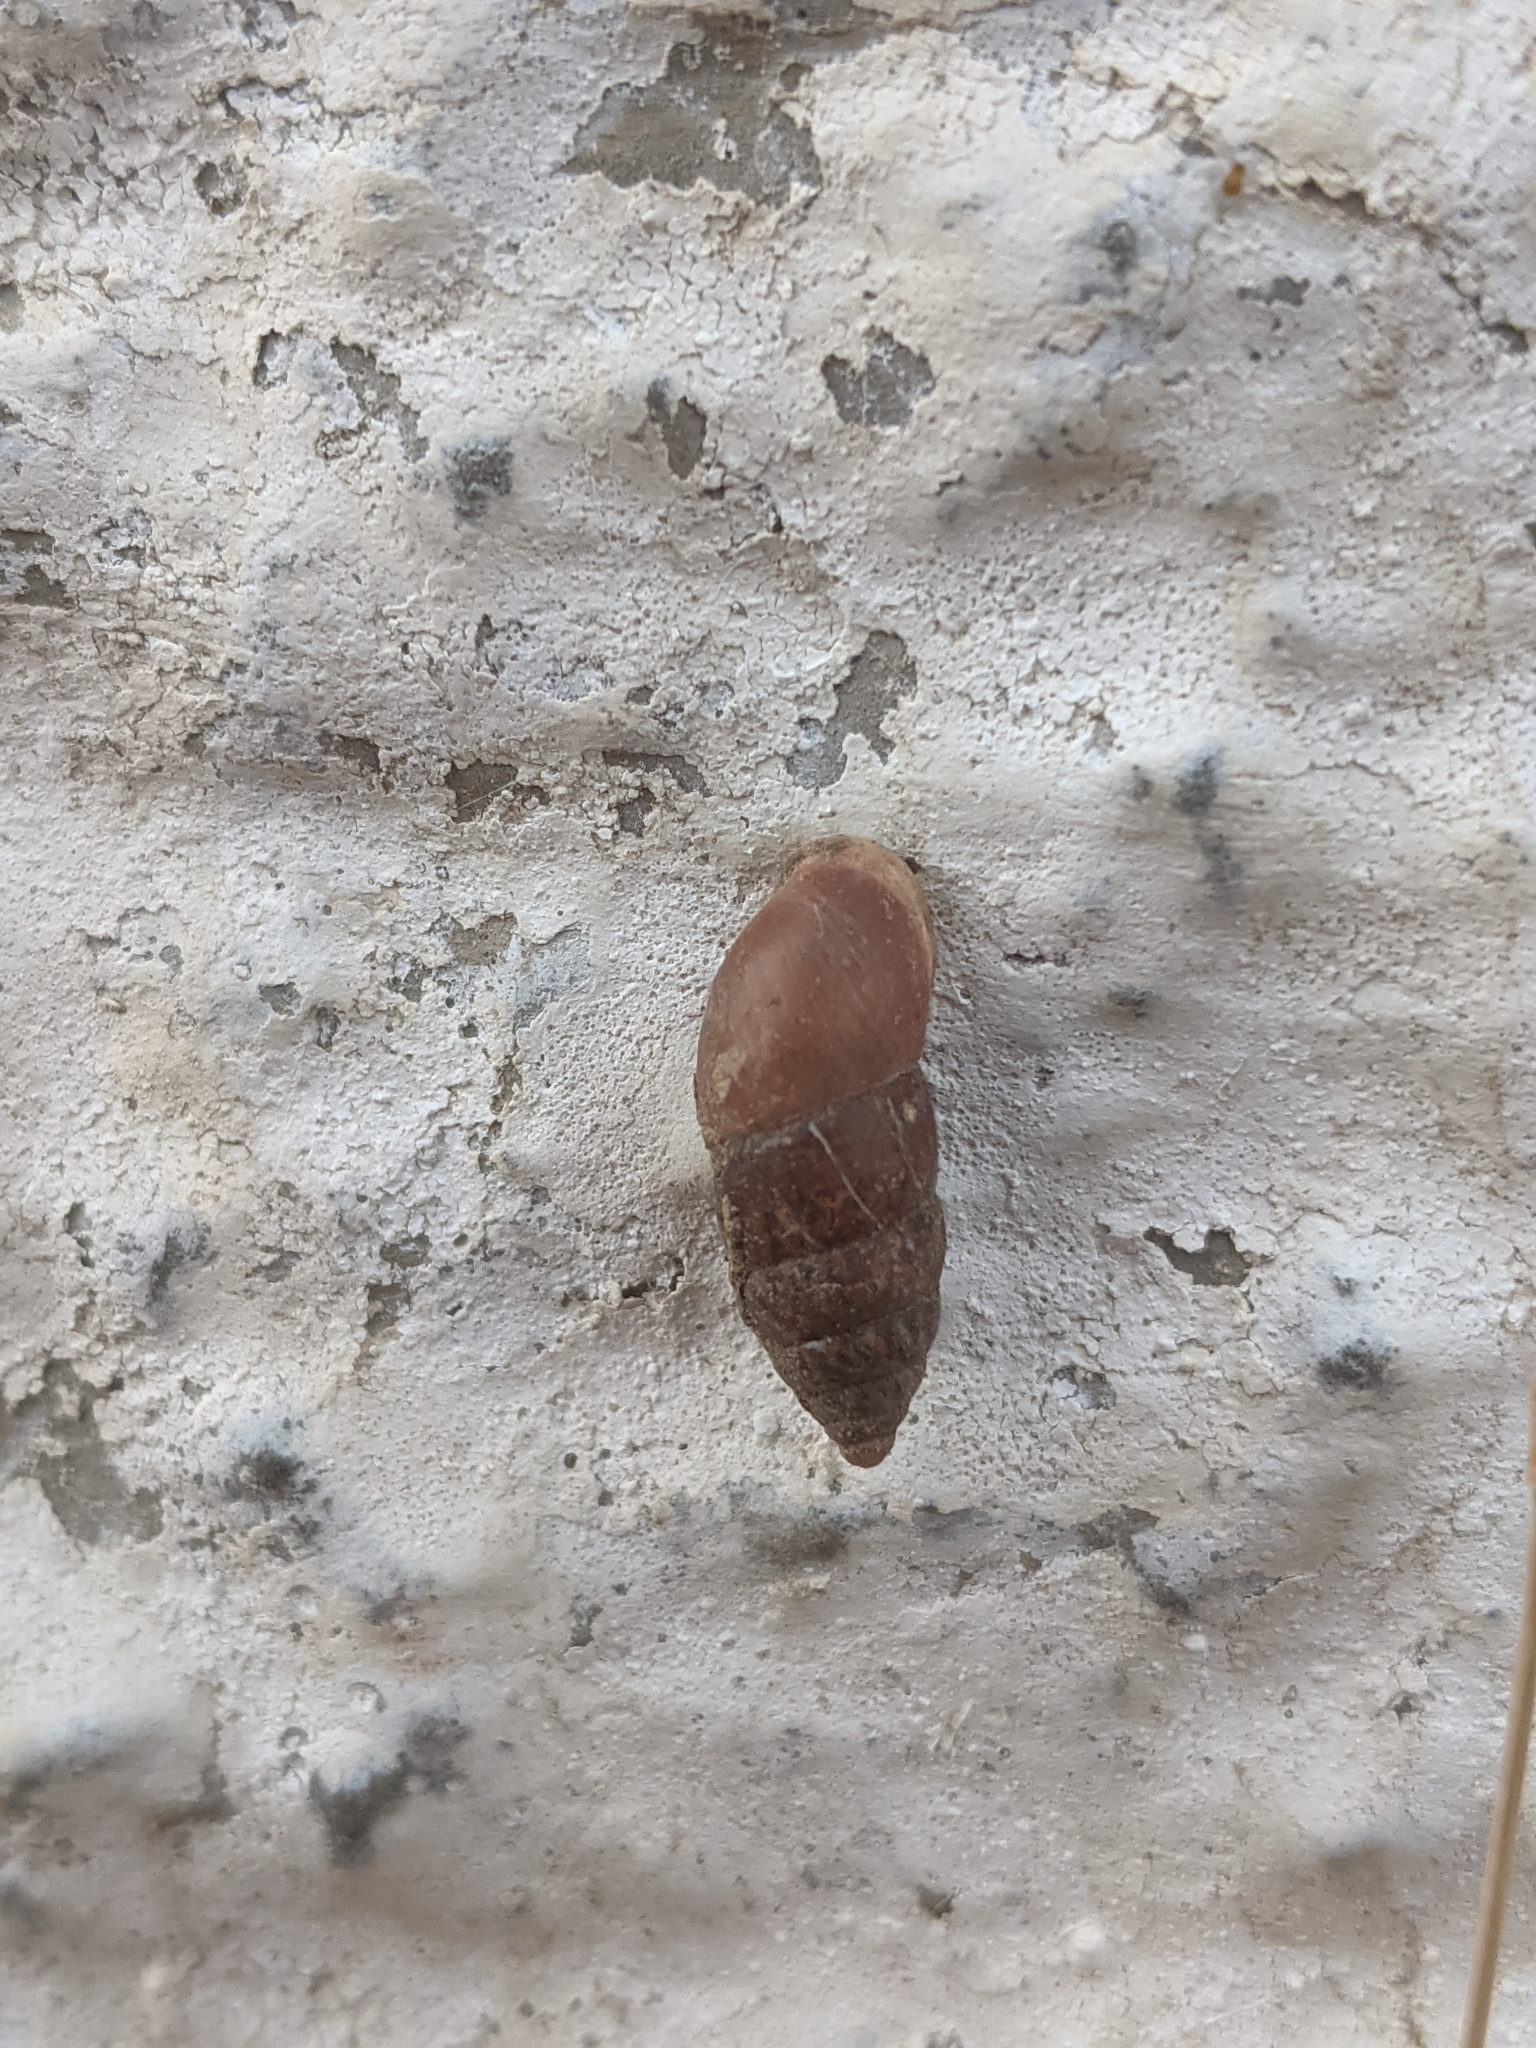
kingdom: Animalia
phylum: Mollusca
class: Gastropoda
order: Stylommatophora
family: Enidae
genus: Chondrula
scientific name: Chondrula tridens
